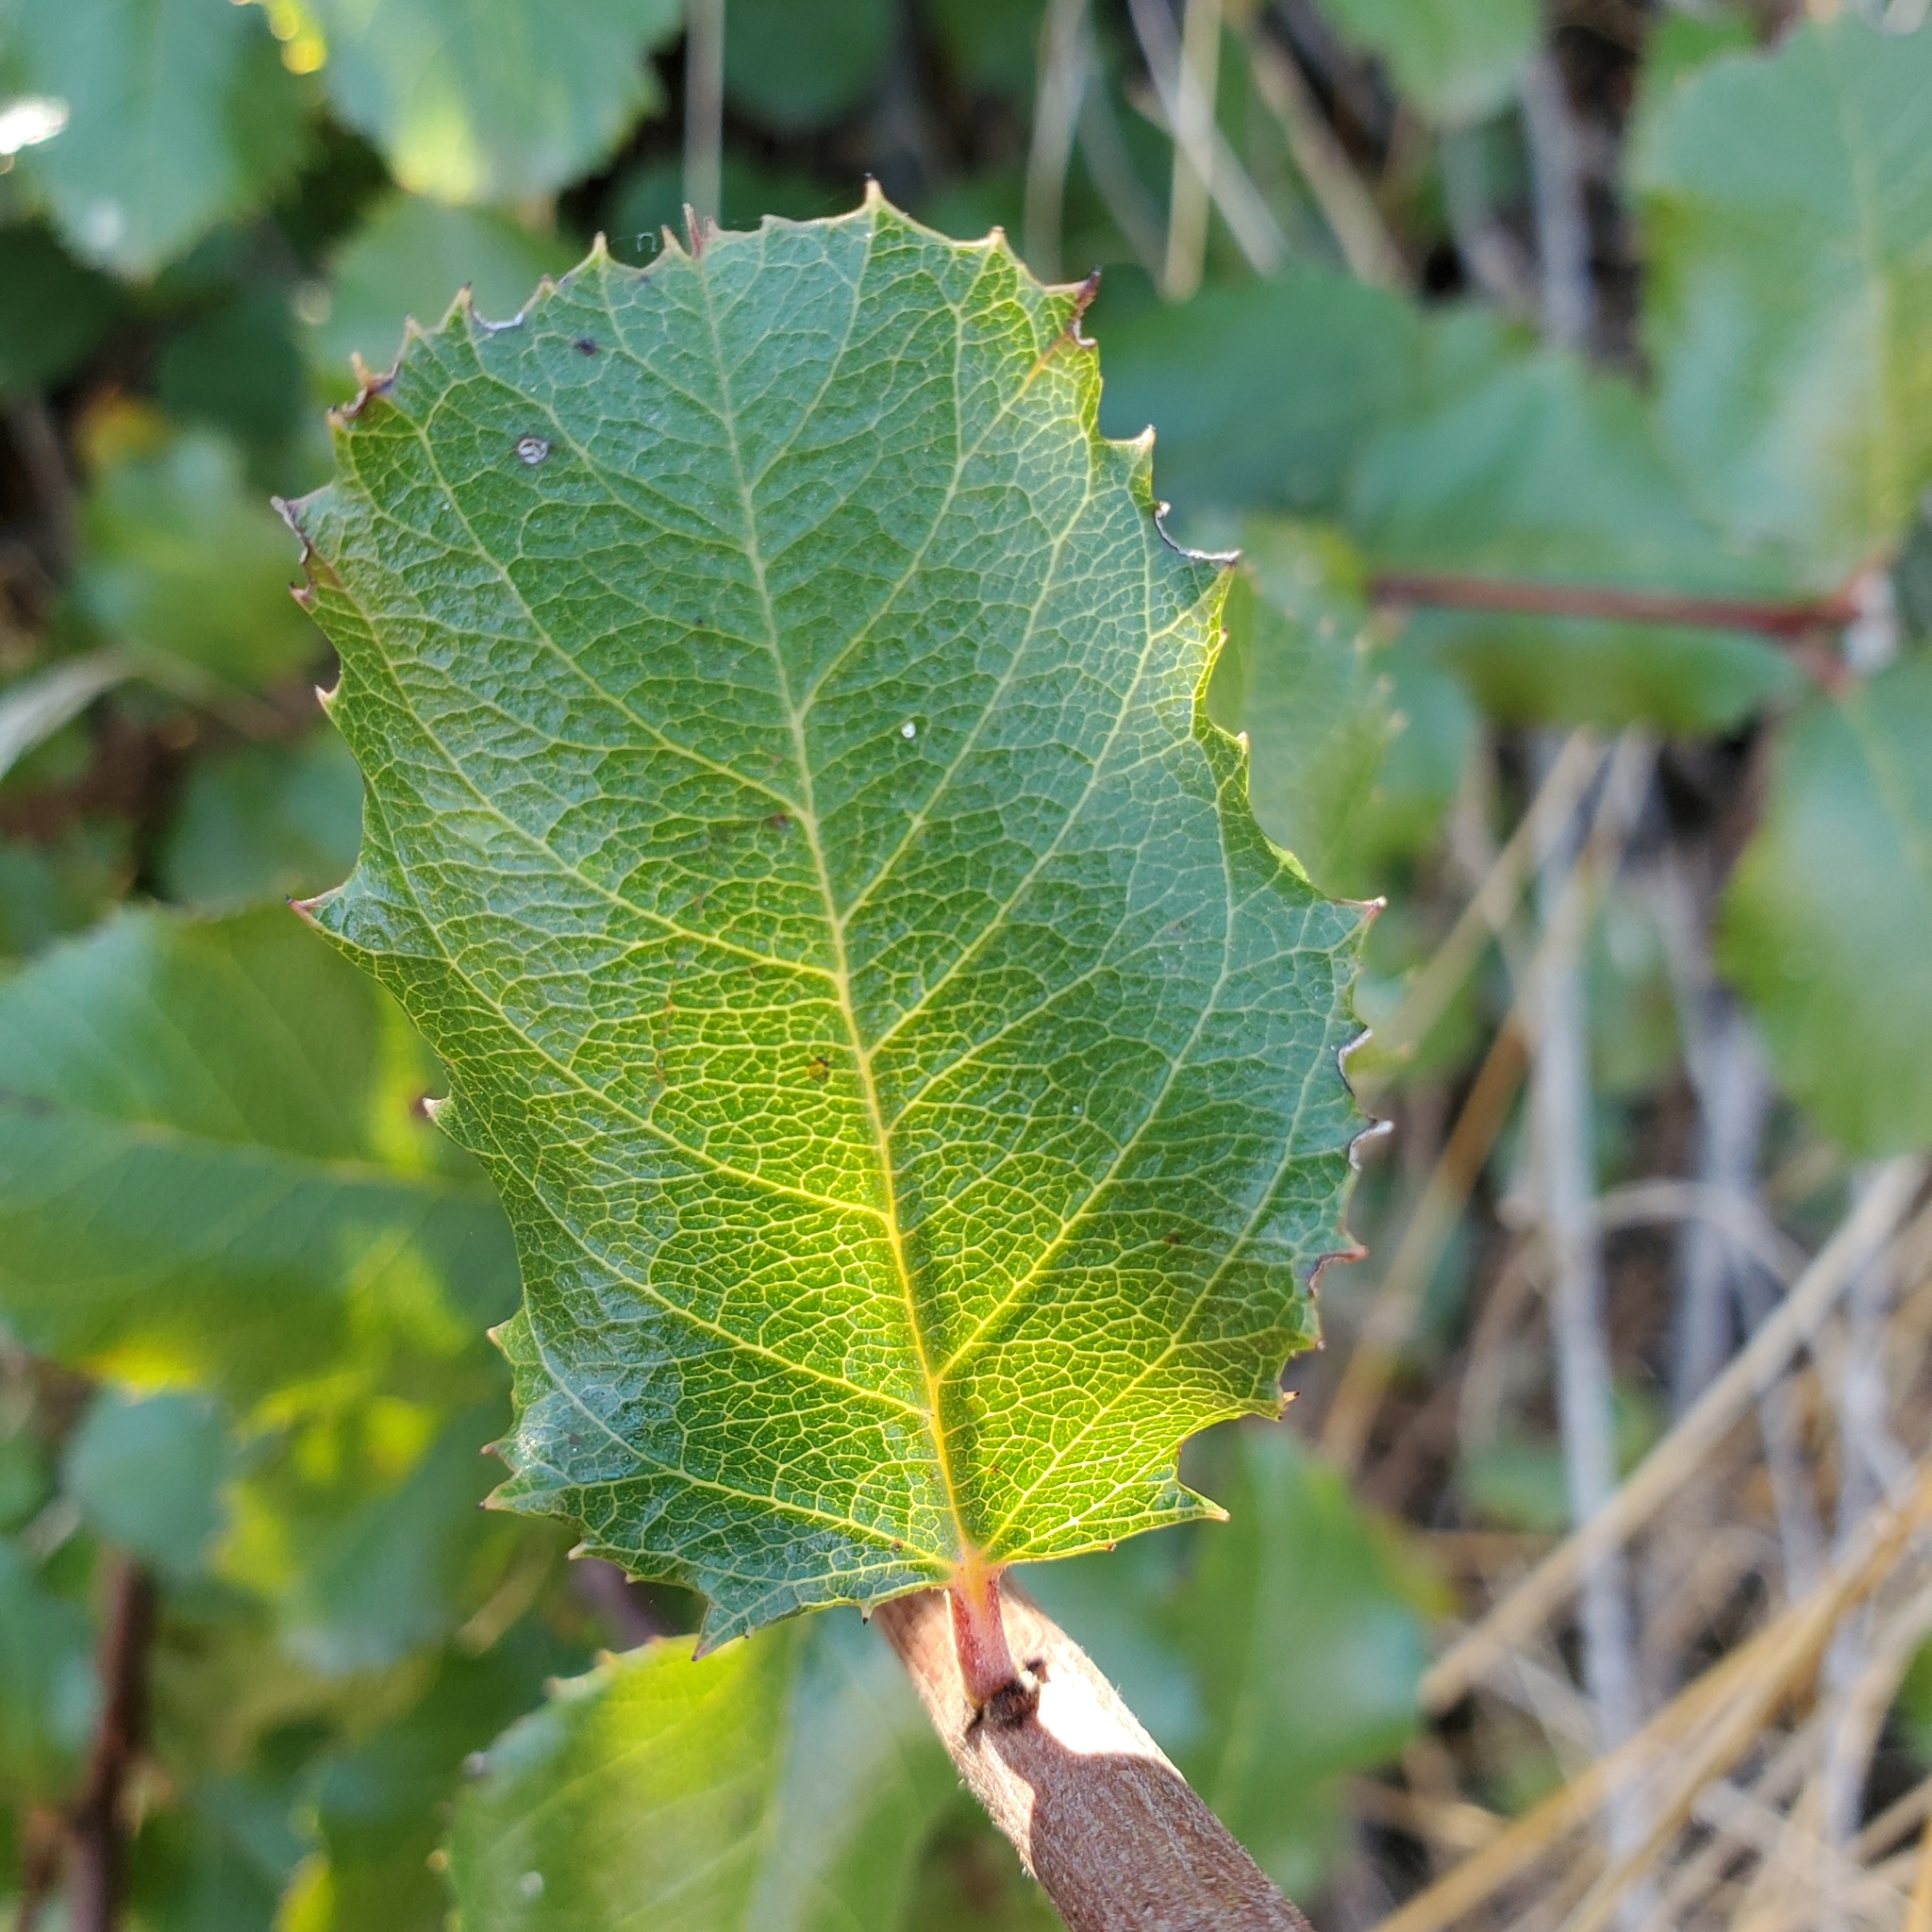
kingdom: Plantae
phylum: Tracheophyta
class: Magnoliopsida
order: Rosales
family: Rhamnaceae
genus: Endotropis
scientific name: Endotropis crocea
